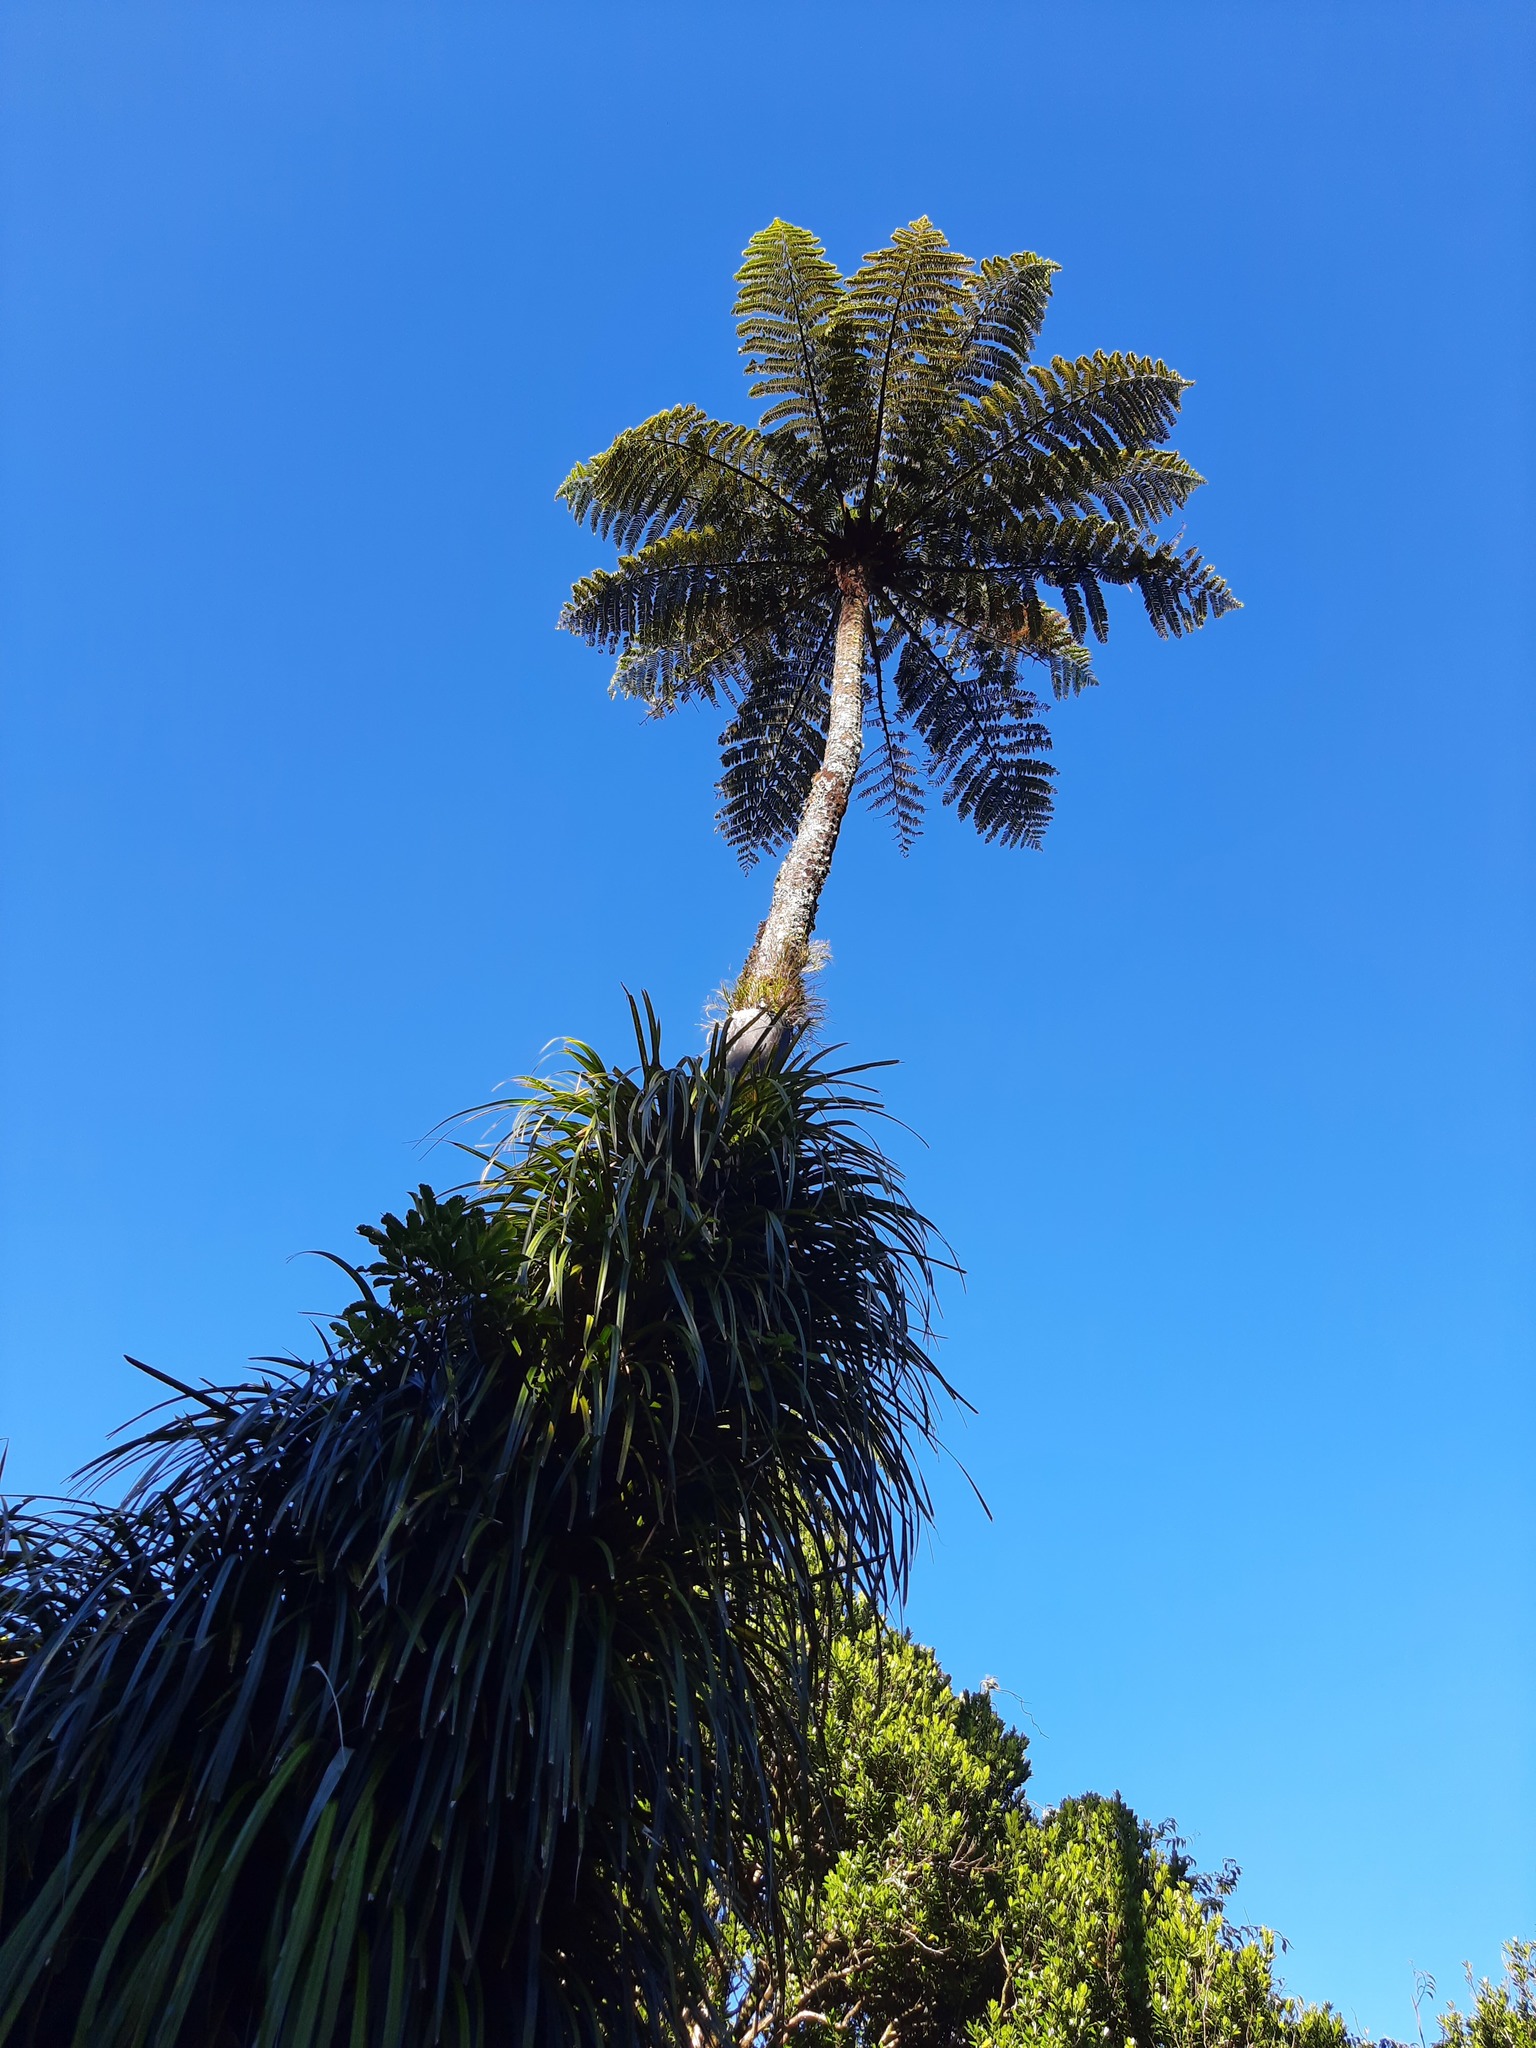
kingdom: Plantae
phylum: Tracheophyta
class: Polypodiopsida
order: Cyatheales
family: Cyatheaceae
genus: Sphaeropteris
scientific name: Sphaeropteris medullaris
